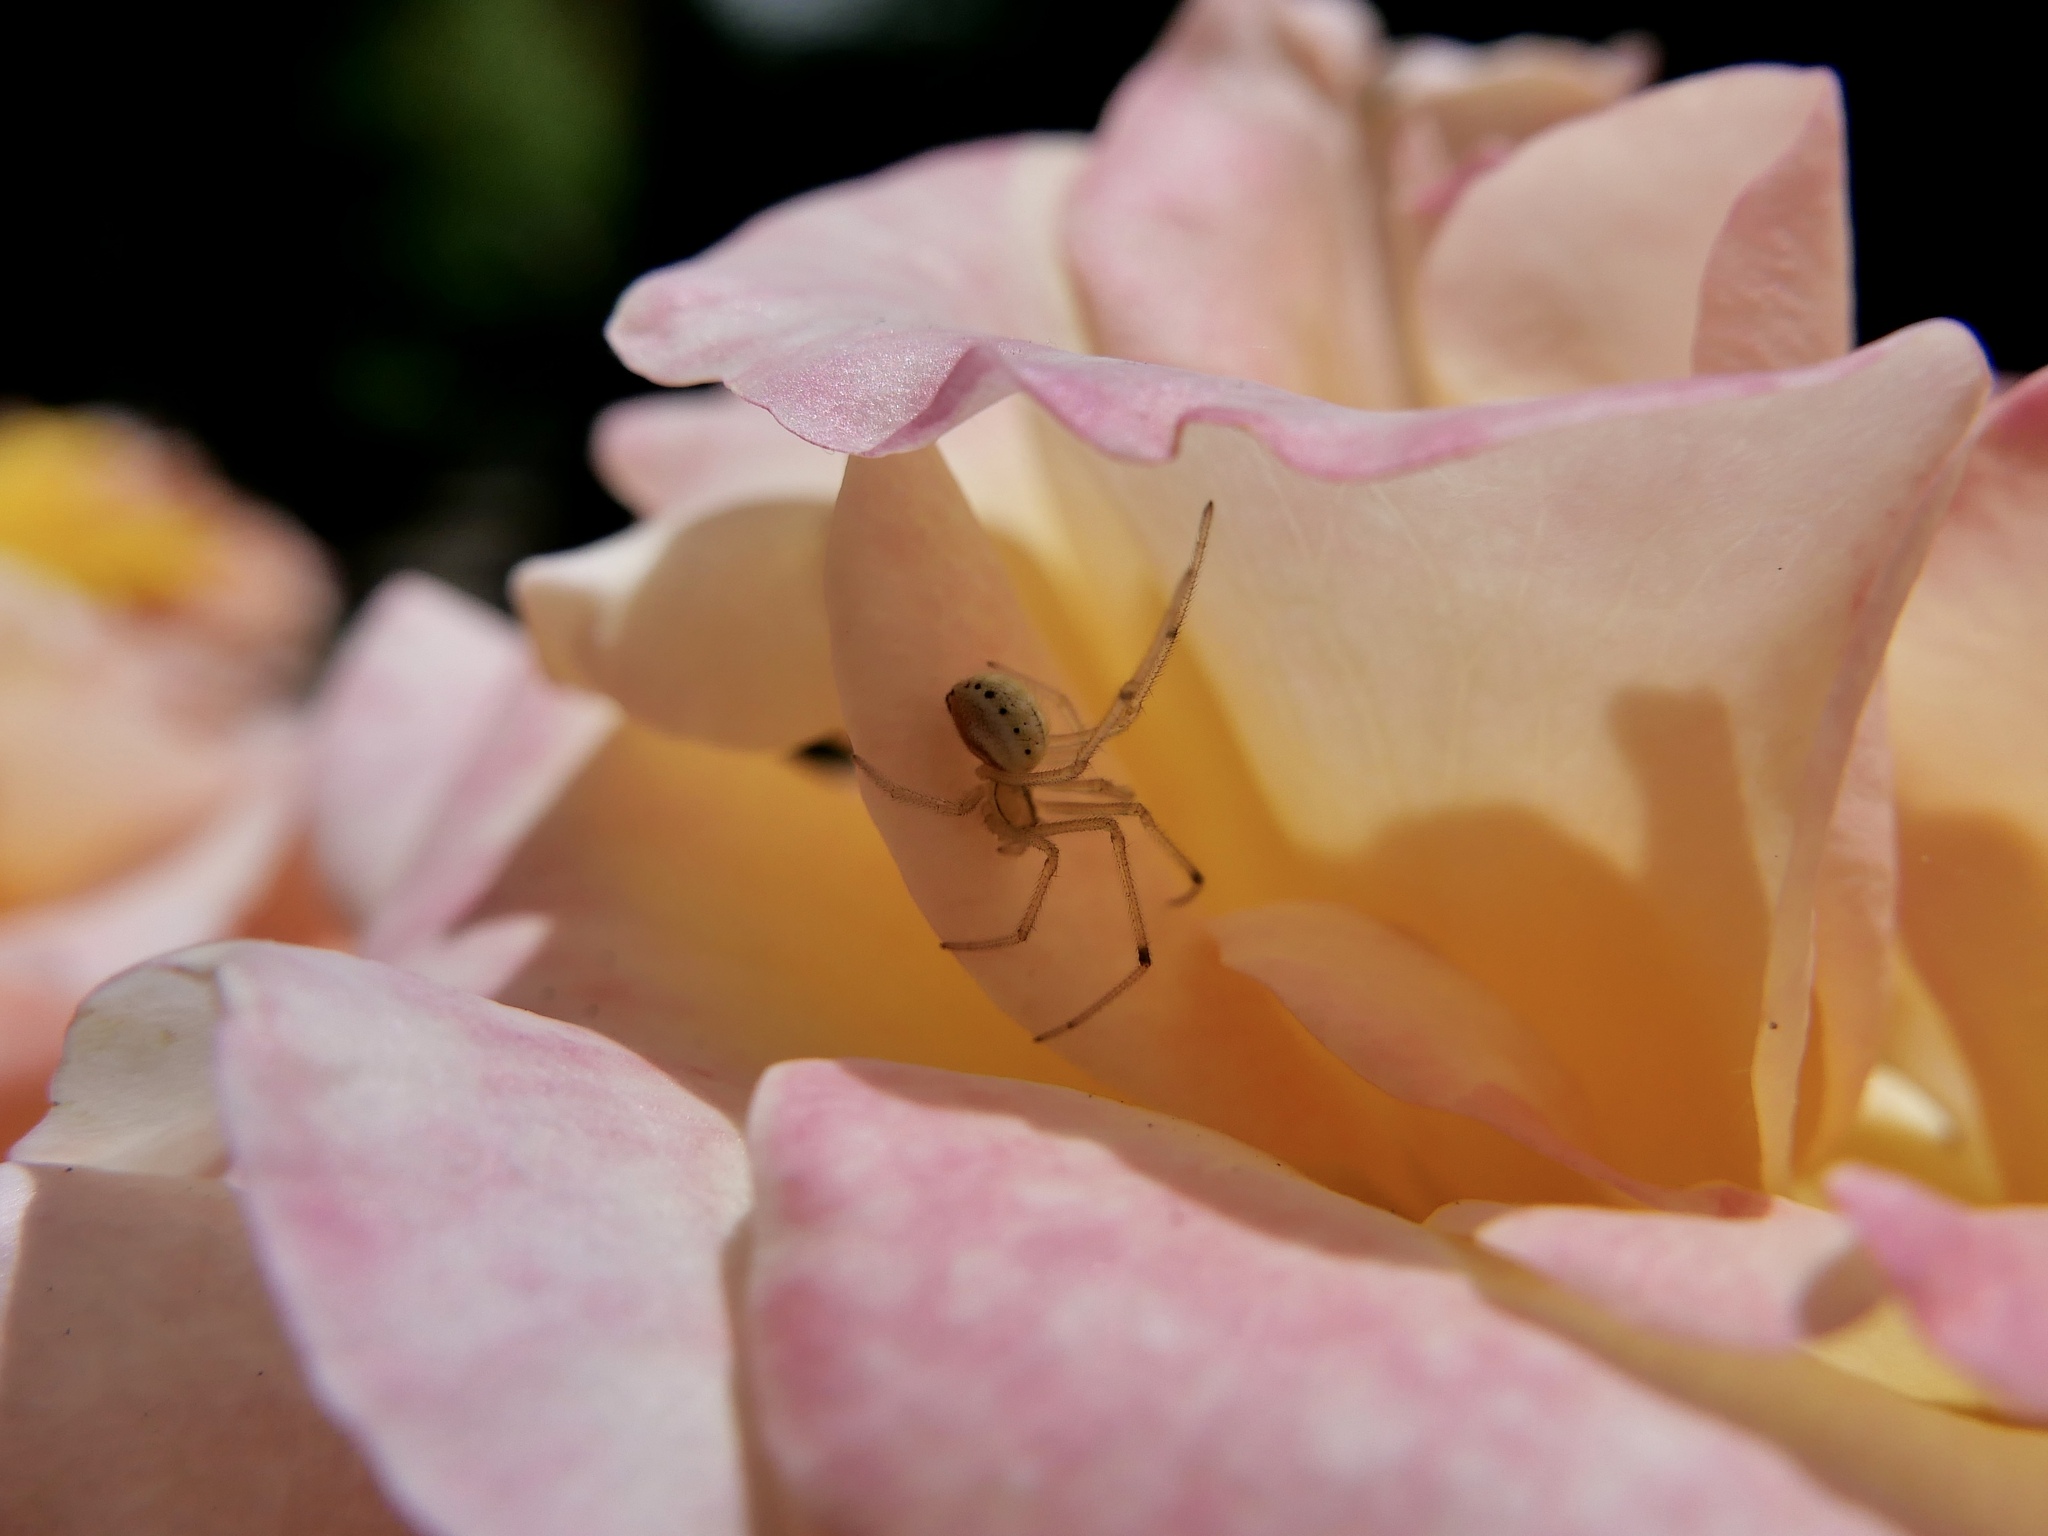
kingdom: Animalia
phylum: Arthropoda
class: Arachnida
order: Araneae
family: Theridiidae
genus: Enoplognatha
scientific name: Enoplognatha ovata
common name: Common candy-striped spider
